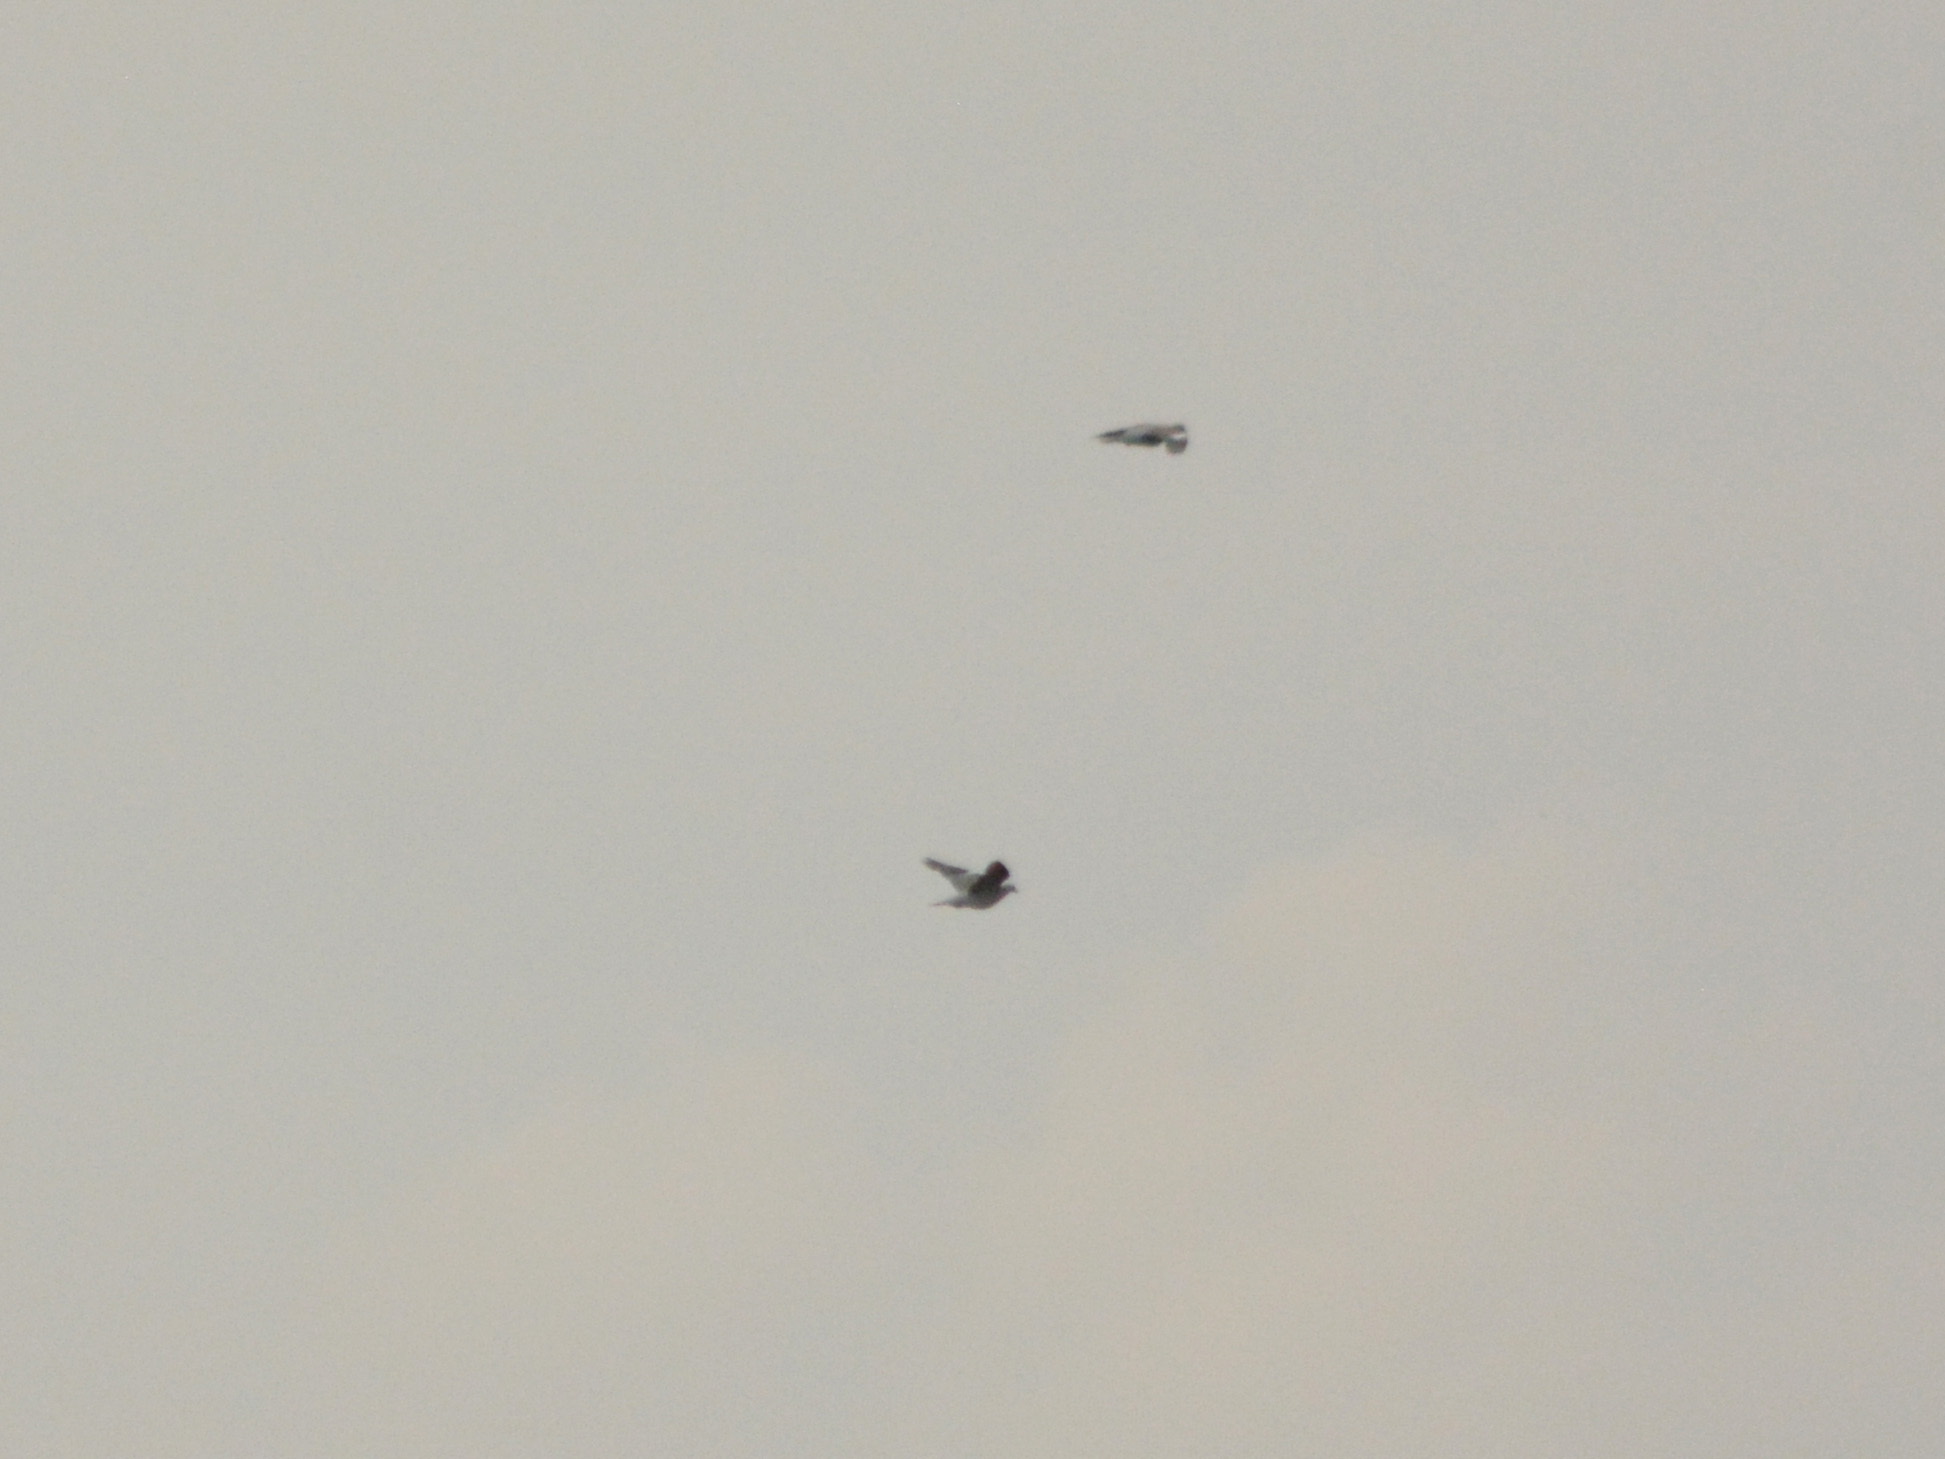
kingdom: Animalia
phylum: Chordata
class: Aves
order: Columbiformes
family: Columbidae
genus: Columba
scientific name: Columba palumbus
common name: Common wood pigeon
